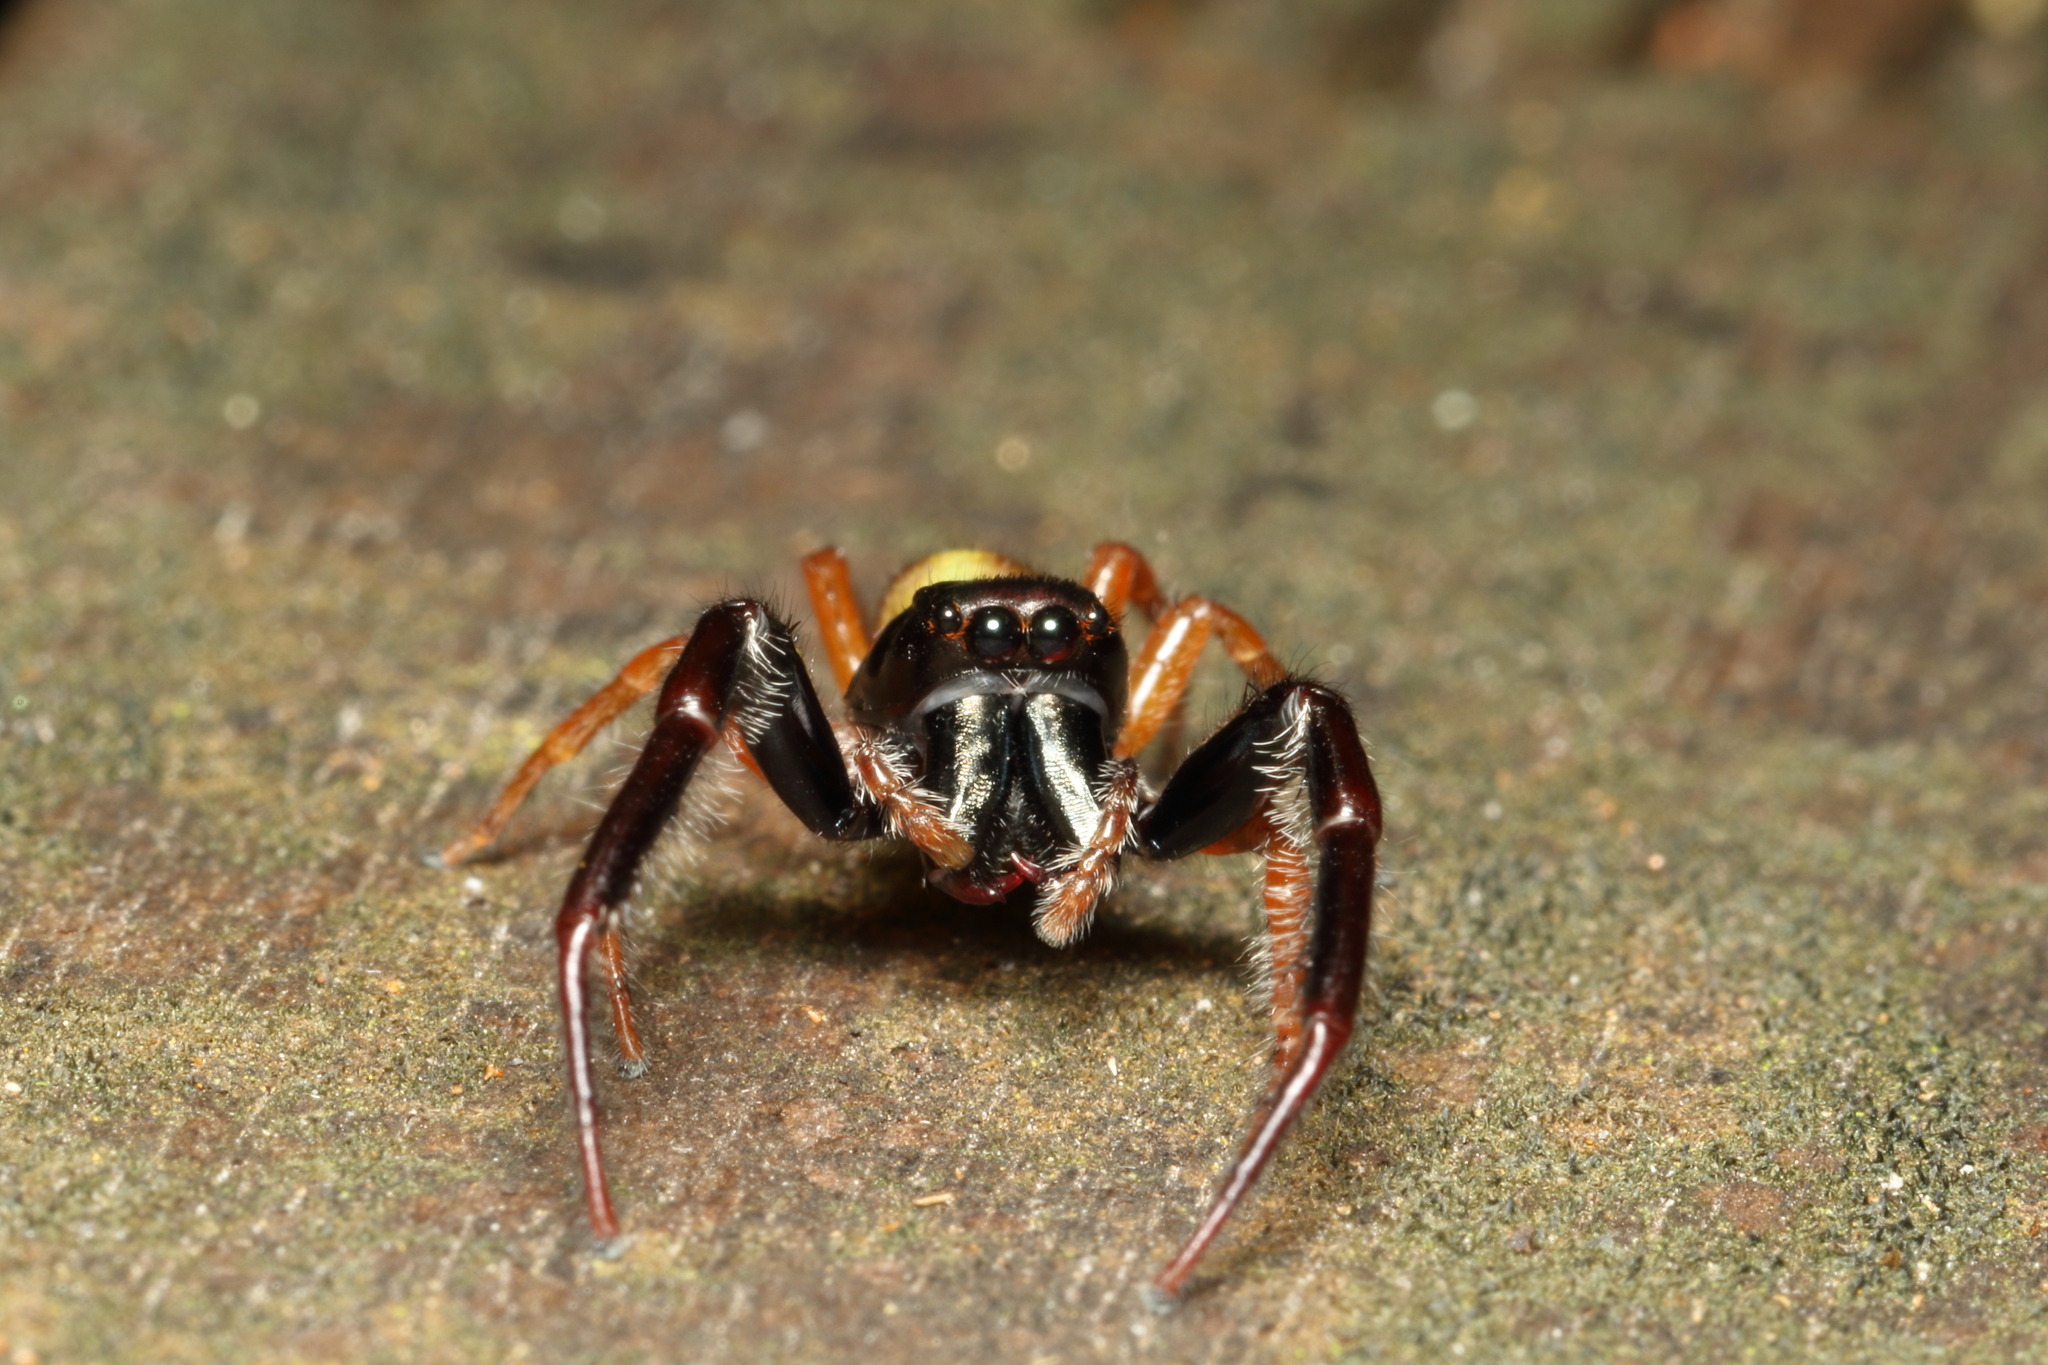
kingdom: Animalia
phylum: Arthropoda
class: Arachnida
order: Araneae
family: Salticidae
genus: Trite
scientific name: Trite planiceps
